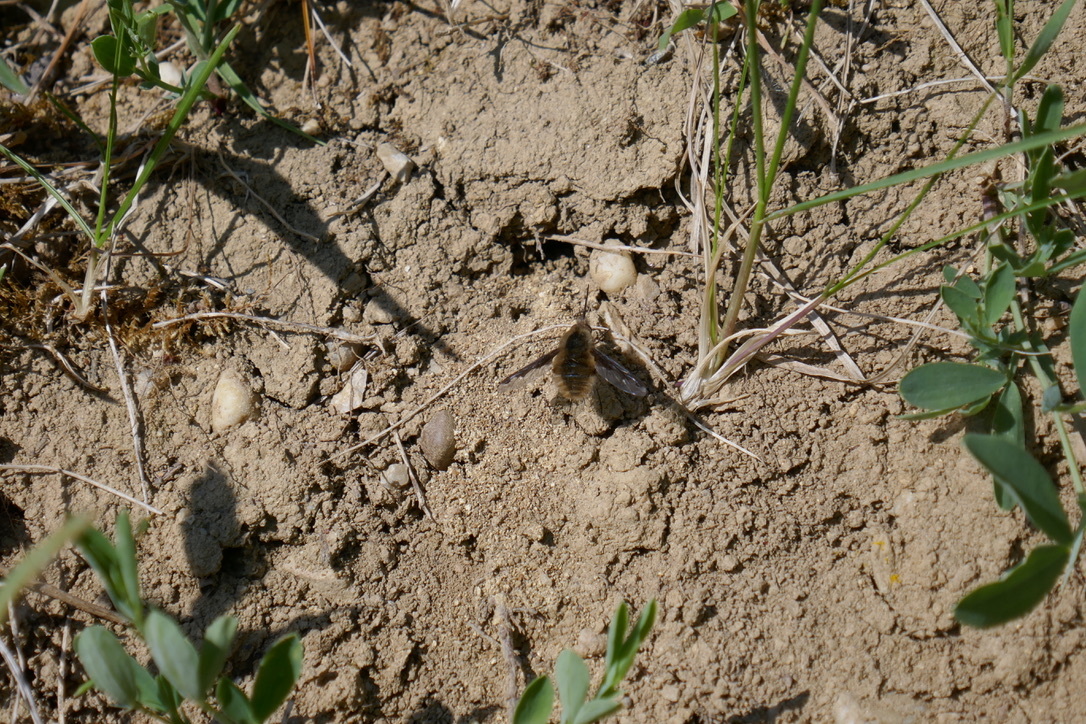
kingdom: Animalia
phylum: Arthropoda
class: Insecta
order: Diptera
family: Bombyliidae
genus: Bombylius
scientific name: Bombylius major
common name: Bee fly
